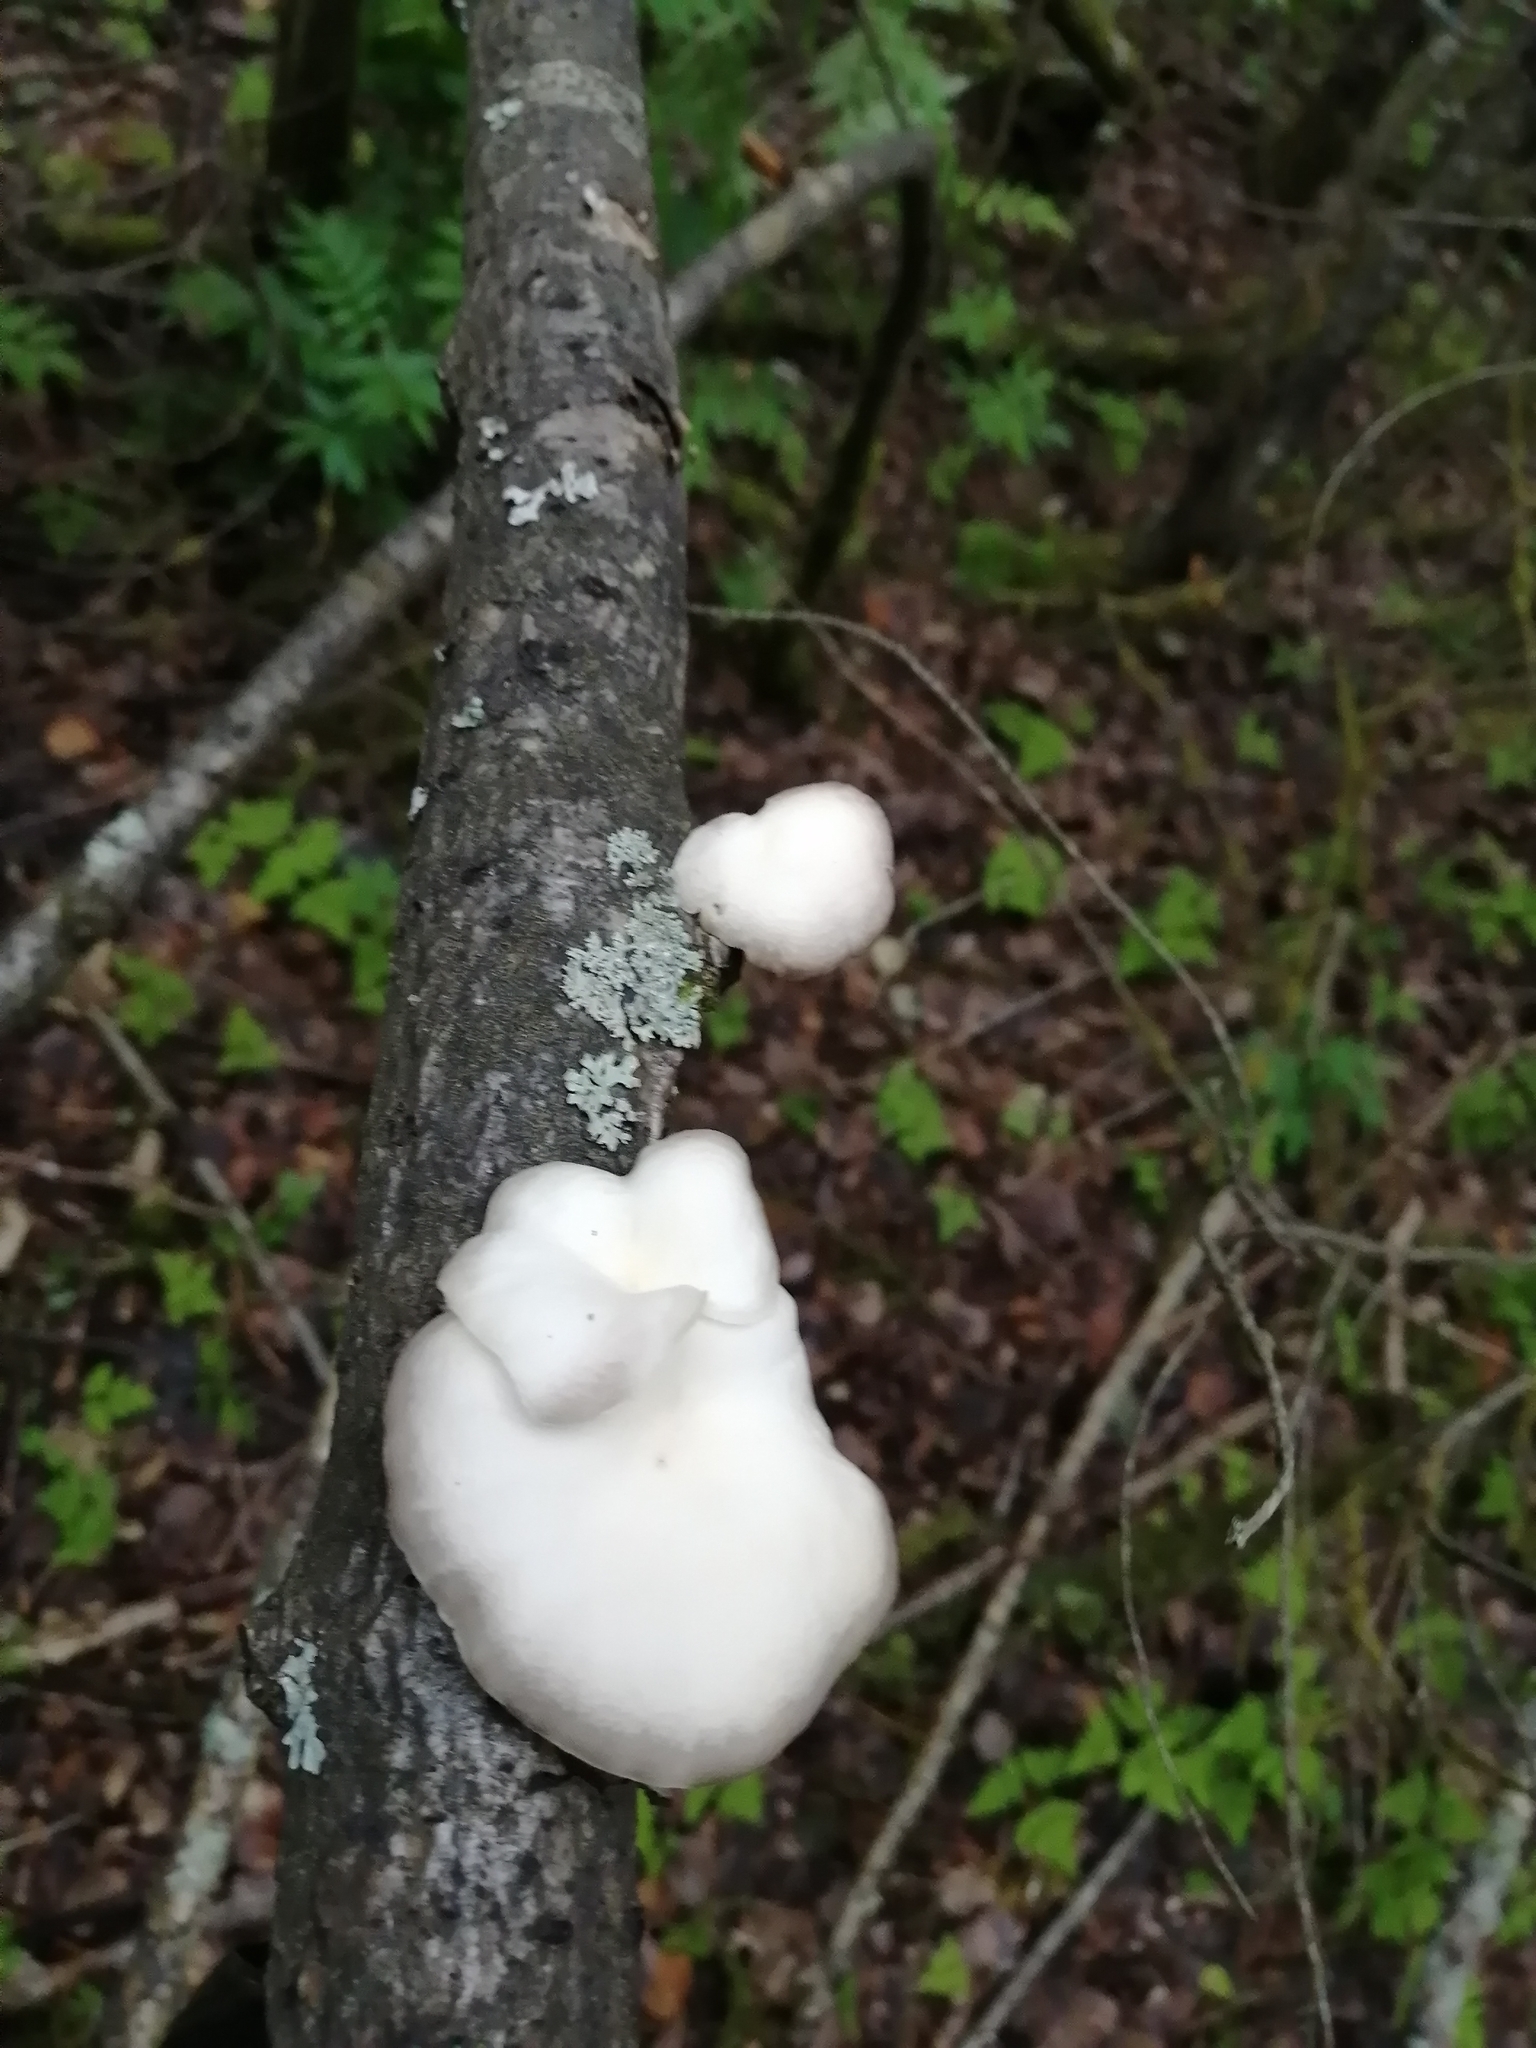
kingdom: Fungi
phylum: Basidiomycota
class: Agaricomycetes
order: Agaricales
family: Pleurotaceae
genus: Pleurotus
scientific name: Pleurotus pulmonarius
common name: Pale oyster
